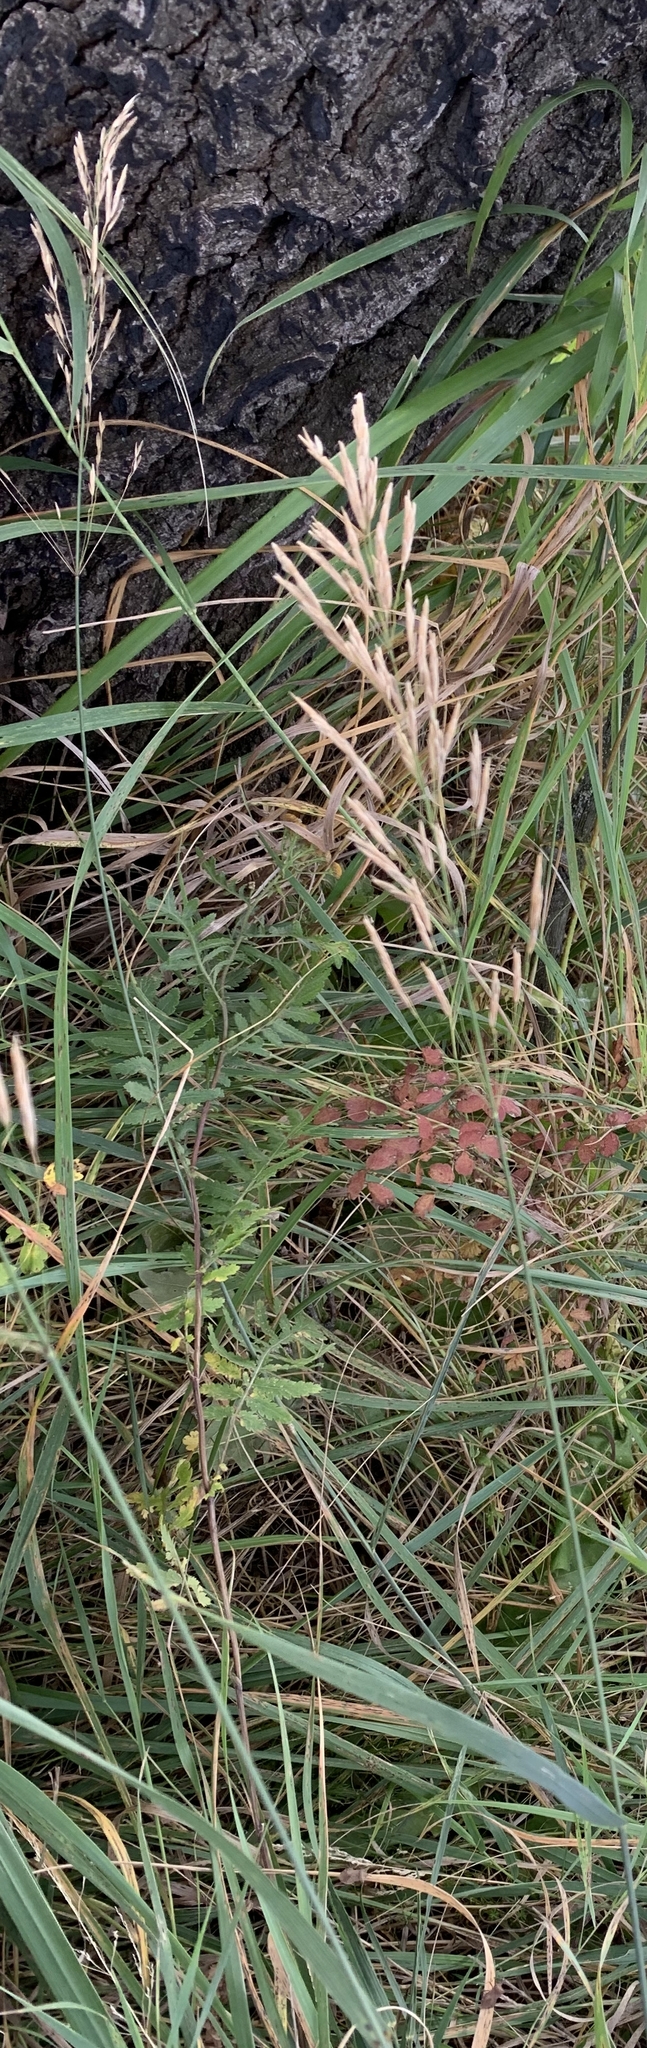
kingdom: Plantae
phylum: Tracheophyta
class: Liliopsida
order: Poales
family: Poaceae
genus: Bromus
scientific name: Bromus inermis
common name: Smooth brome
